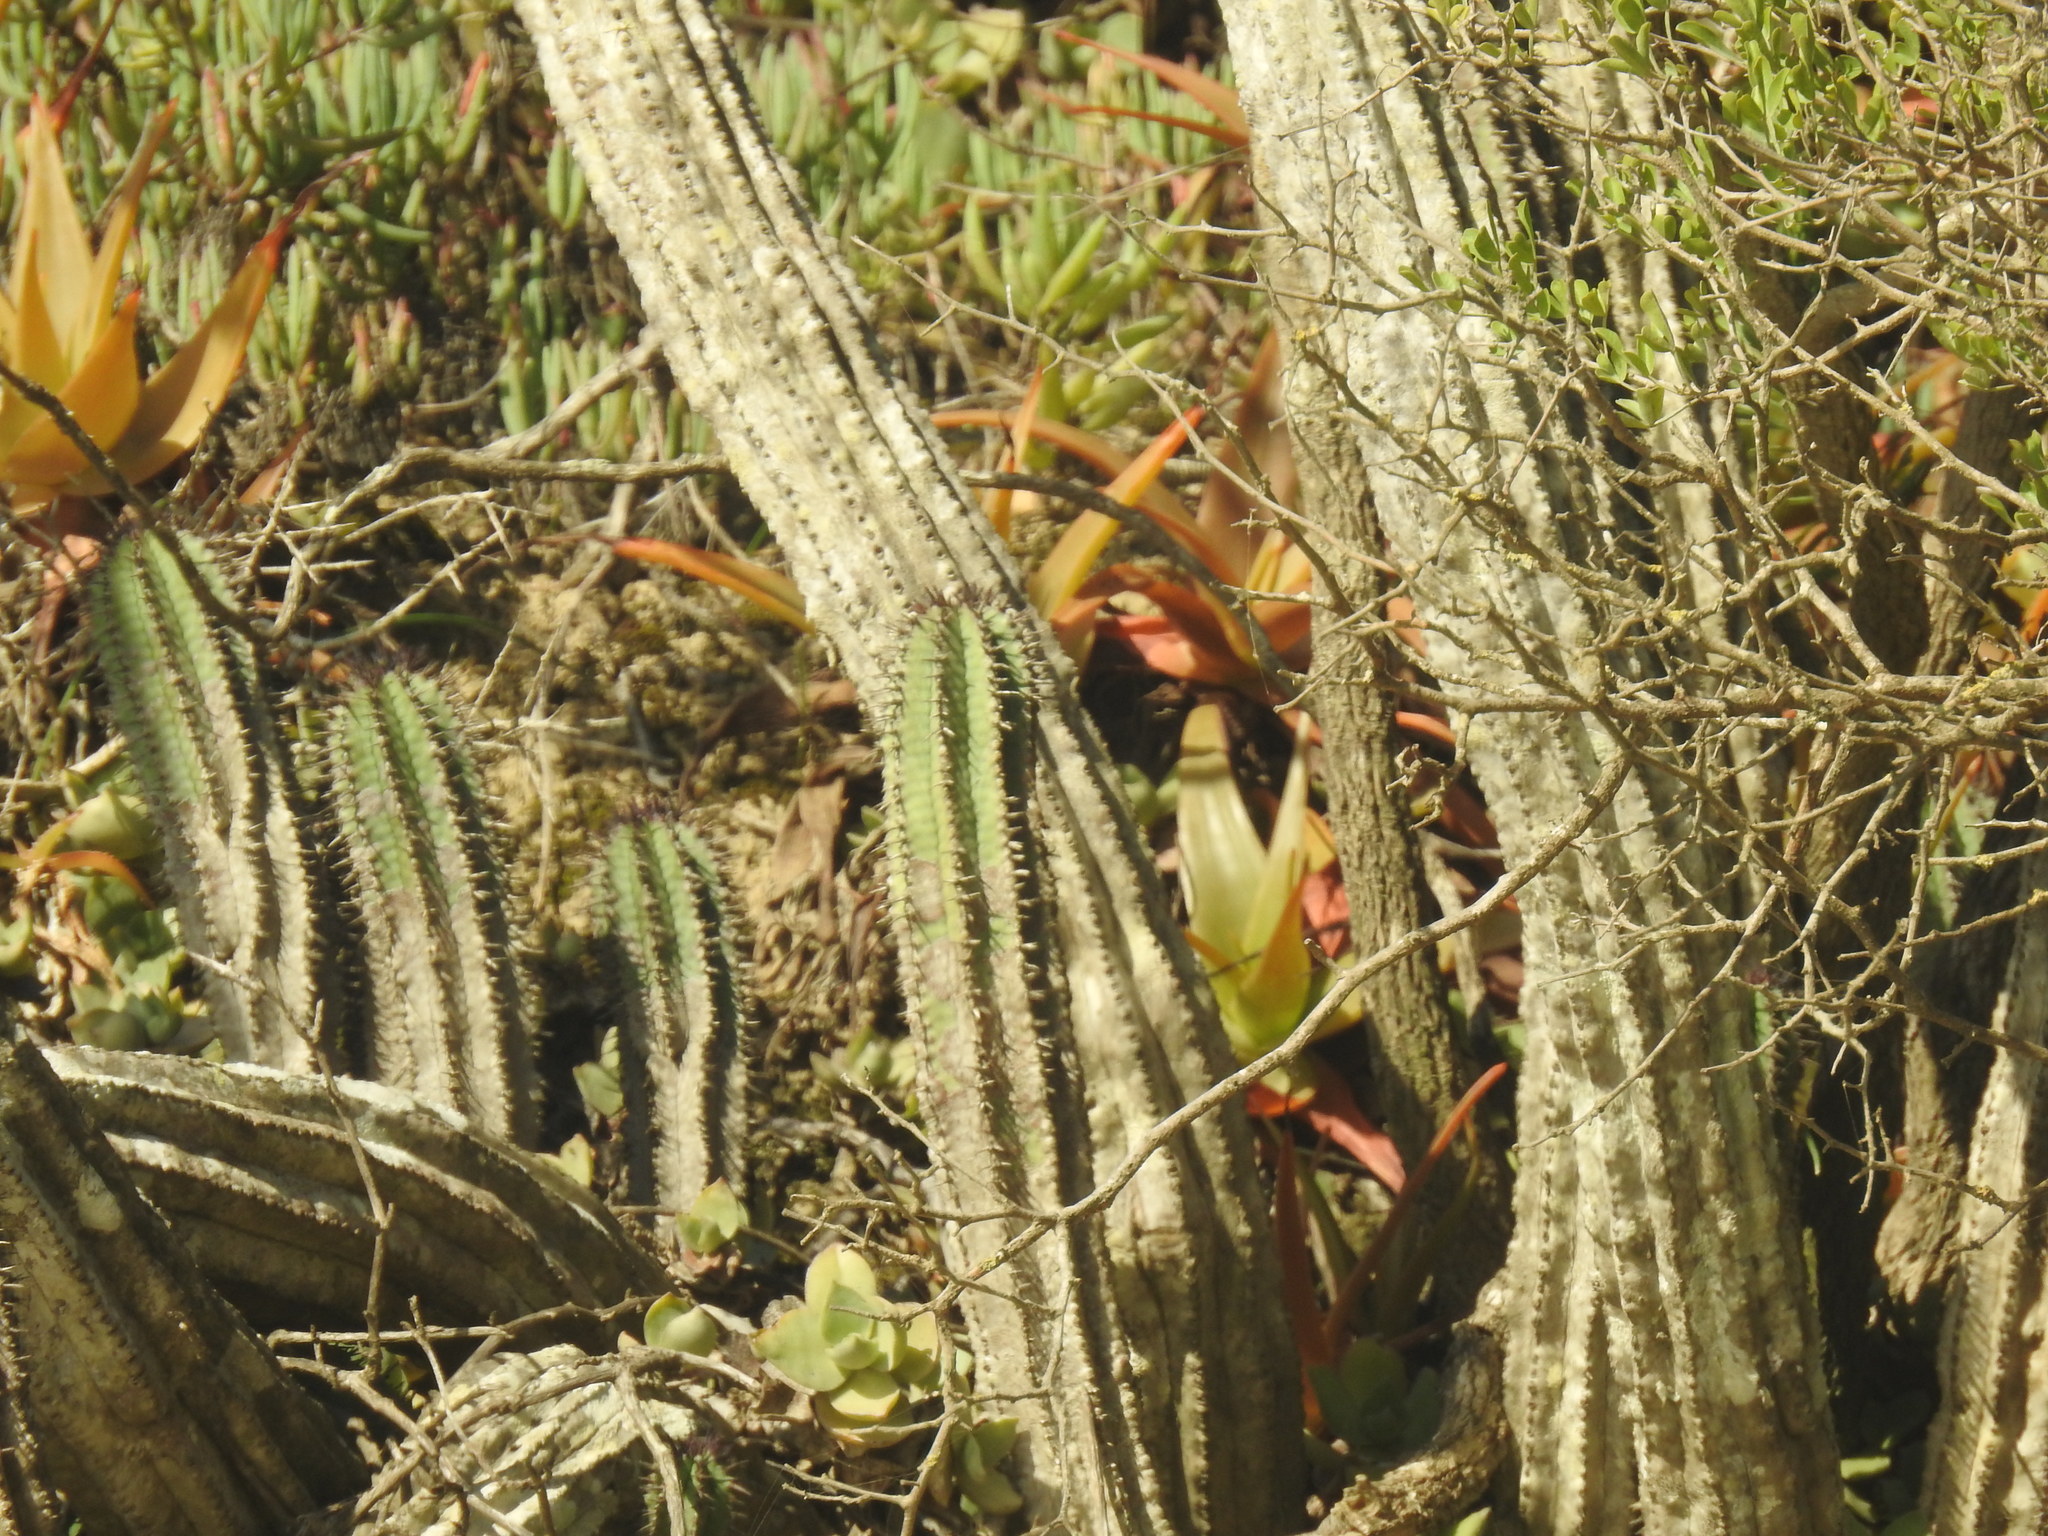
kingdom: Plantae
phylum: Tracheophyta
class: Magnoliopsida
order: Malpighiales
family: Euphorbiaceae
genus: Euphorbia
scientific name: Euphorbia polygona
